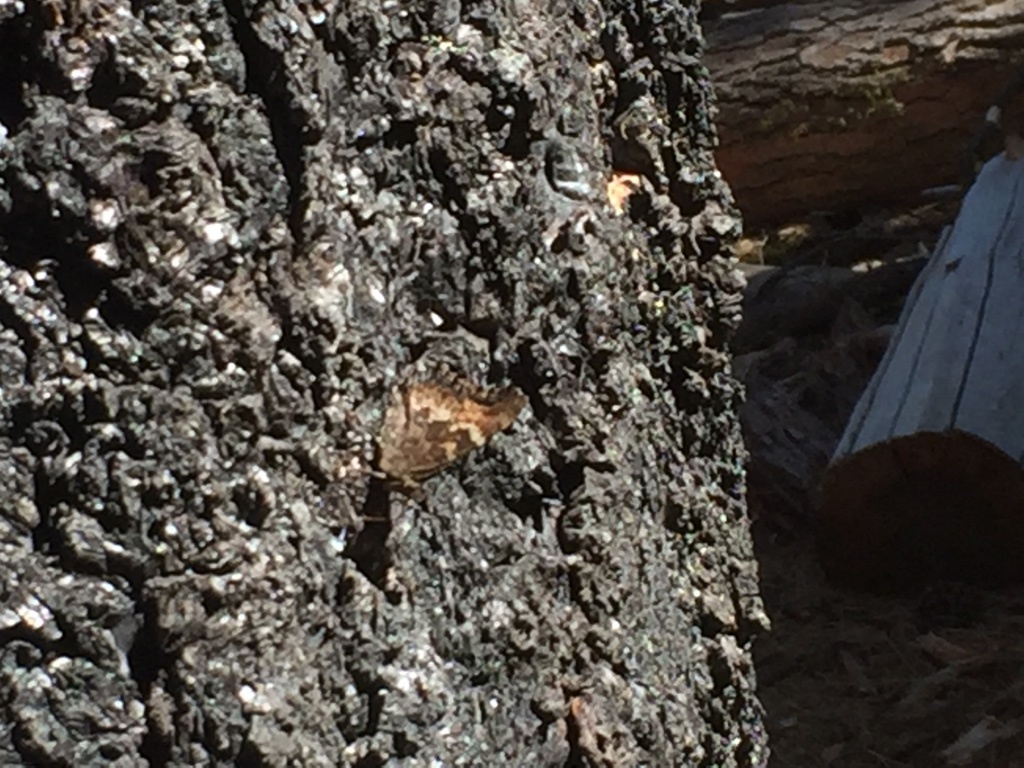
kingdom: Animalia
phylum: Arthropoda
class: Insecta
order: Lepidoptera
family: Nymphalidae
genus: Nymphalis
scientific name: Nymphalis californica
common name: California tortoiseshell
